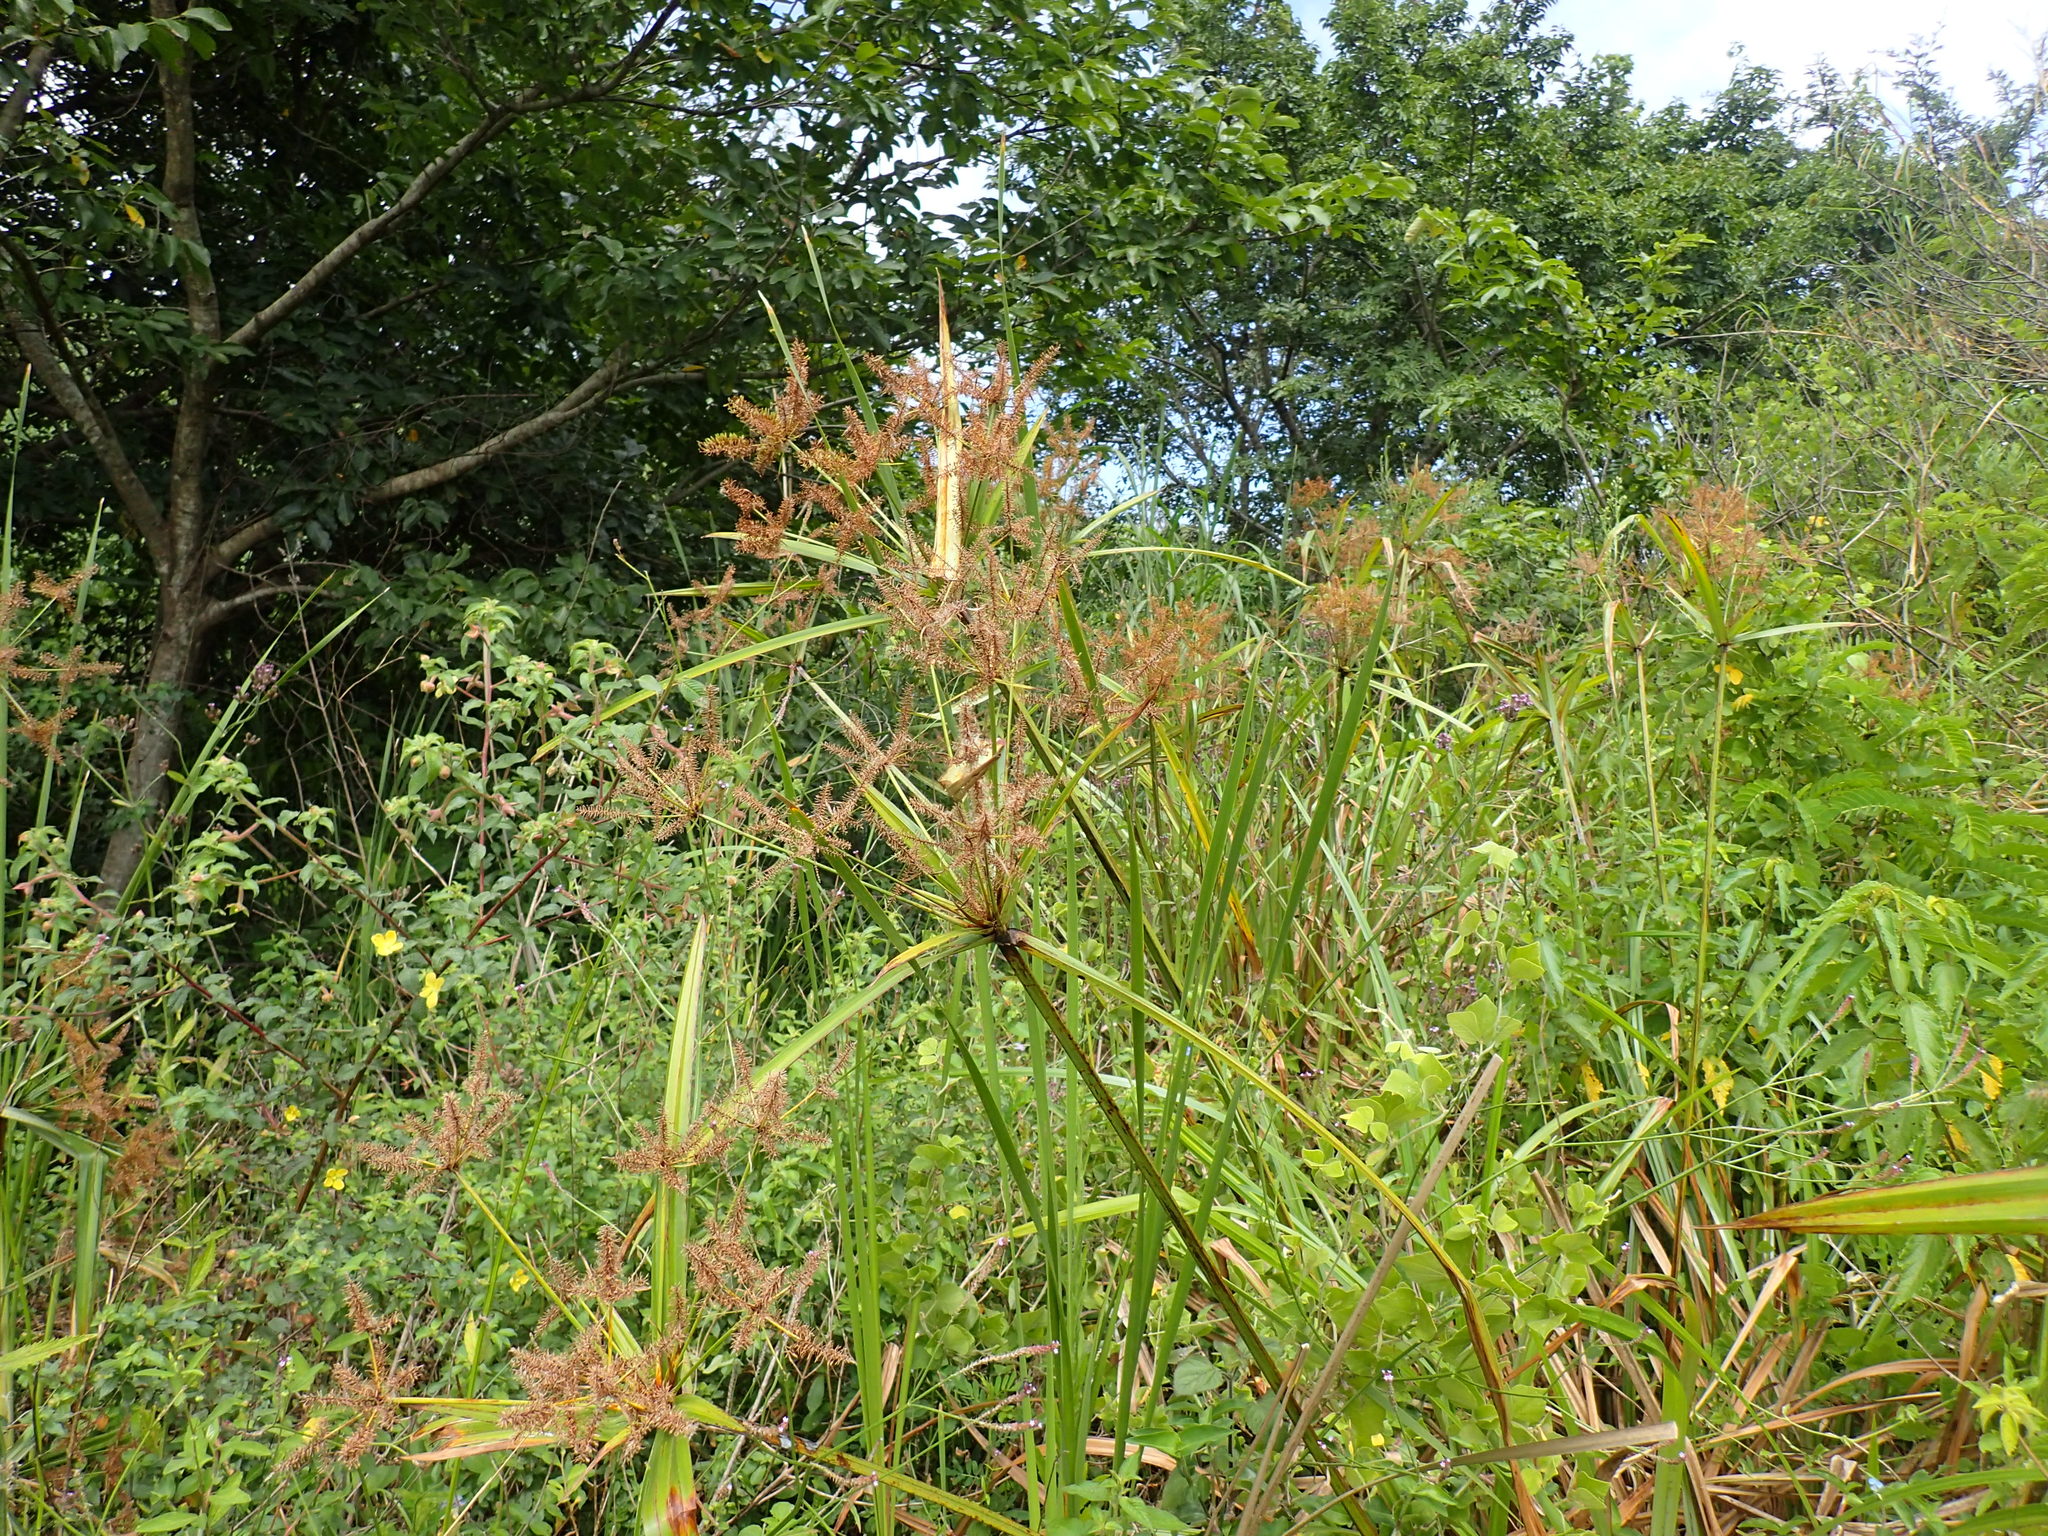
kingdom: Plantae
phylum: Tracheophyta
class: Liliopsida
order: Poales
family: Cyperaceae
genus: Cyperus
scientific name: Cyperus dives
